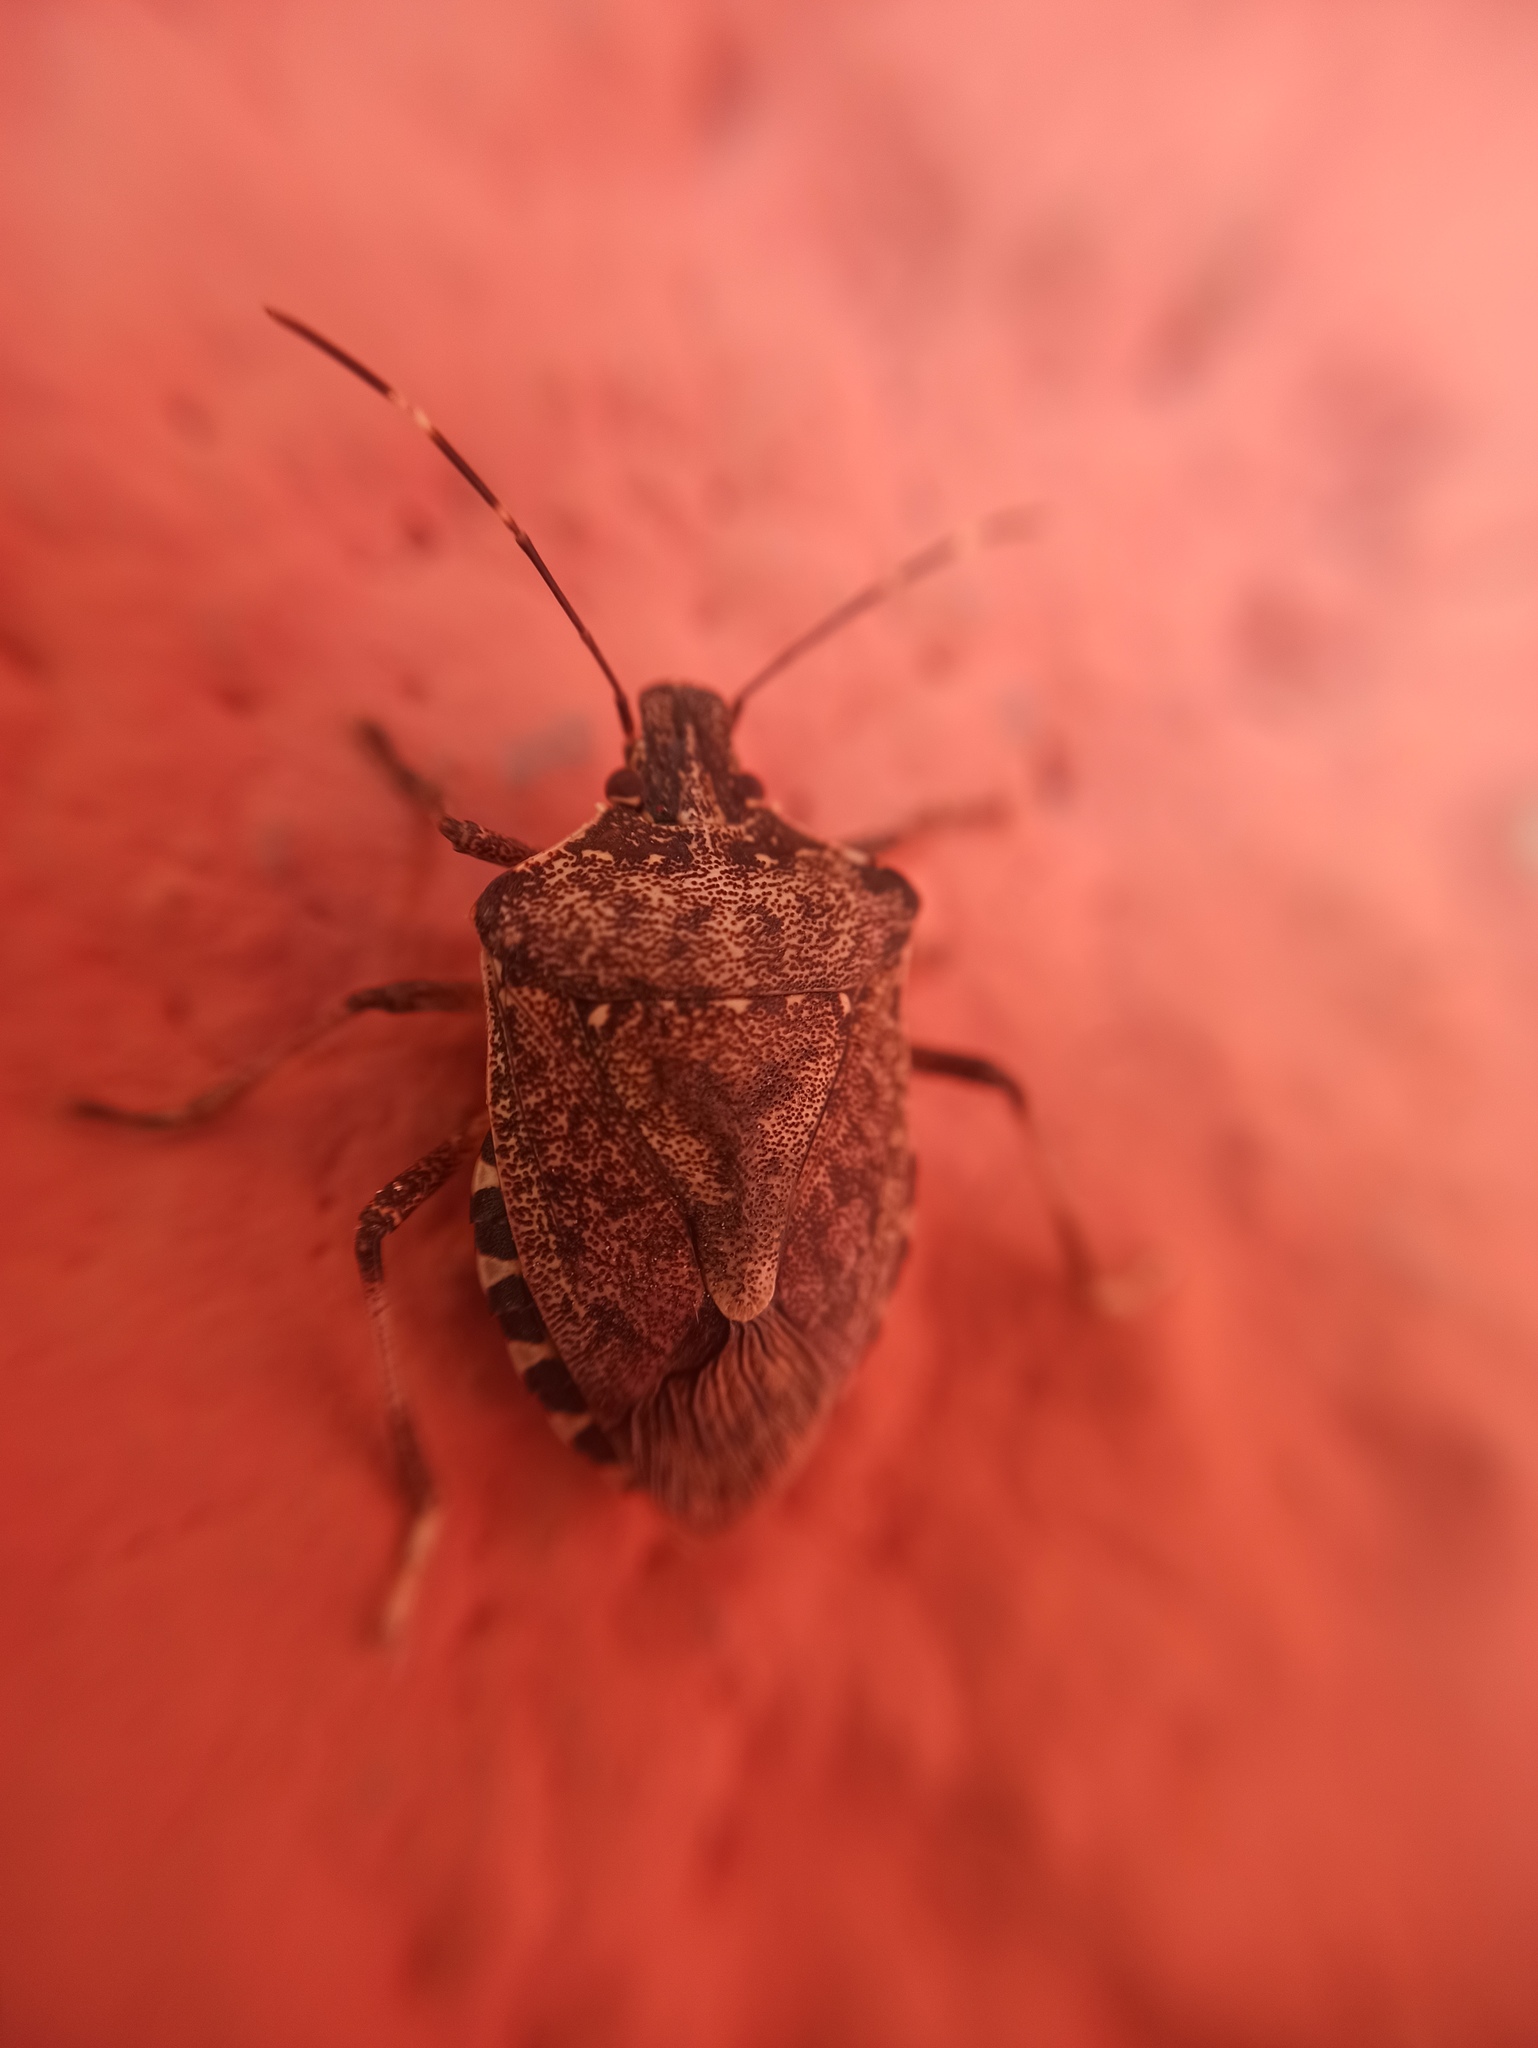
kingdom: Animalia
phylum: Arthropoda
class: Insecta
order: Hemiptera
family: Pentatomidae
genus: Halyomorpha
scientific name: Halyomorpha halys
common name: Brown marmorated stink bug
